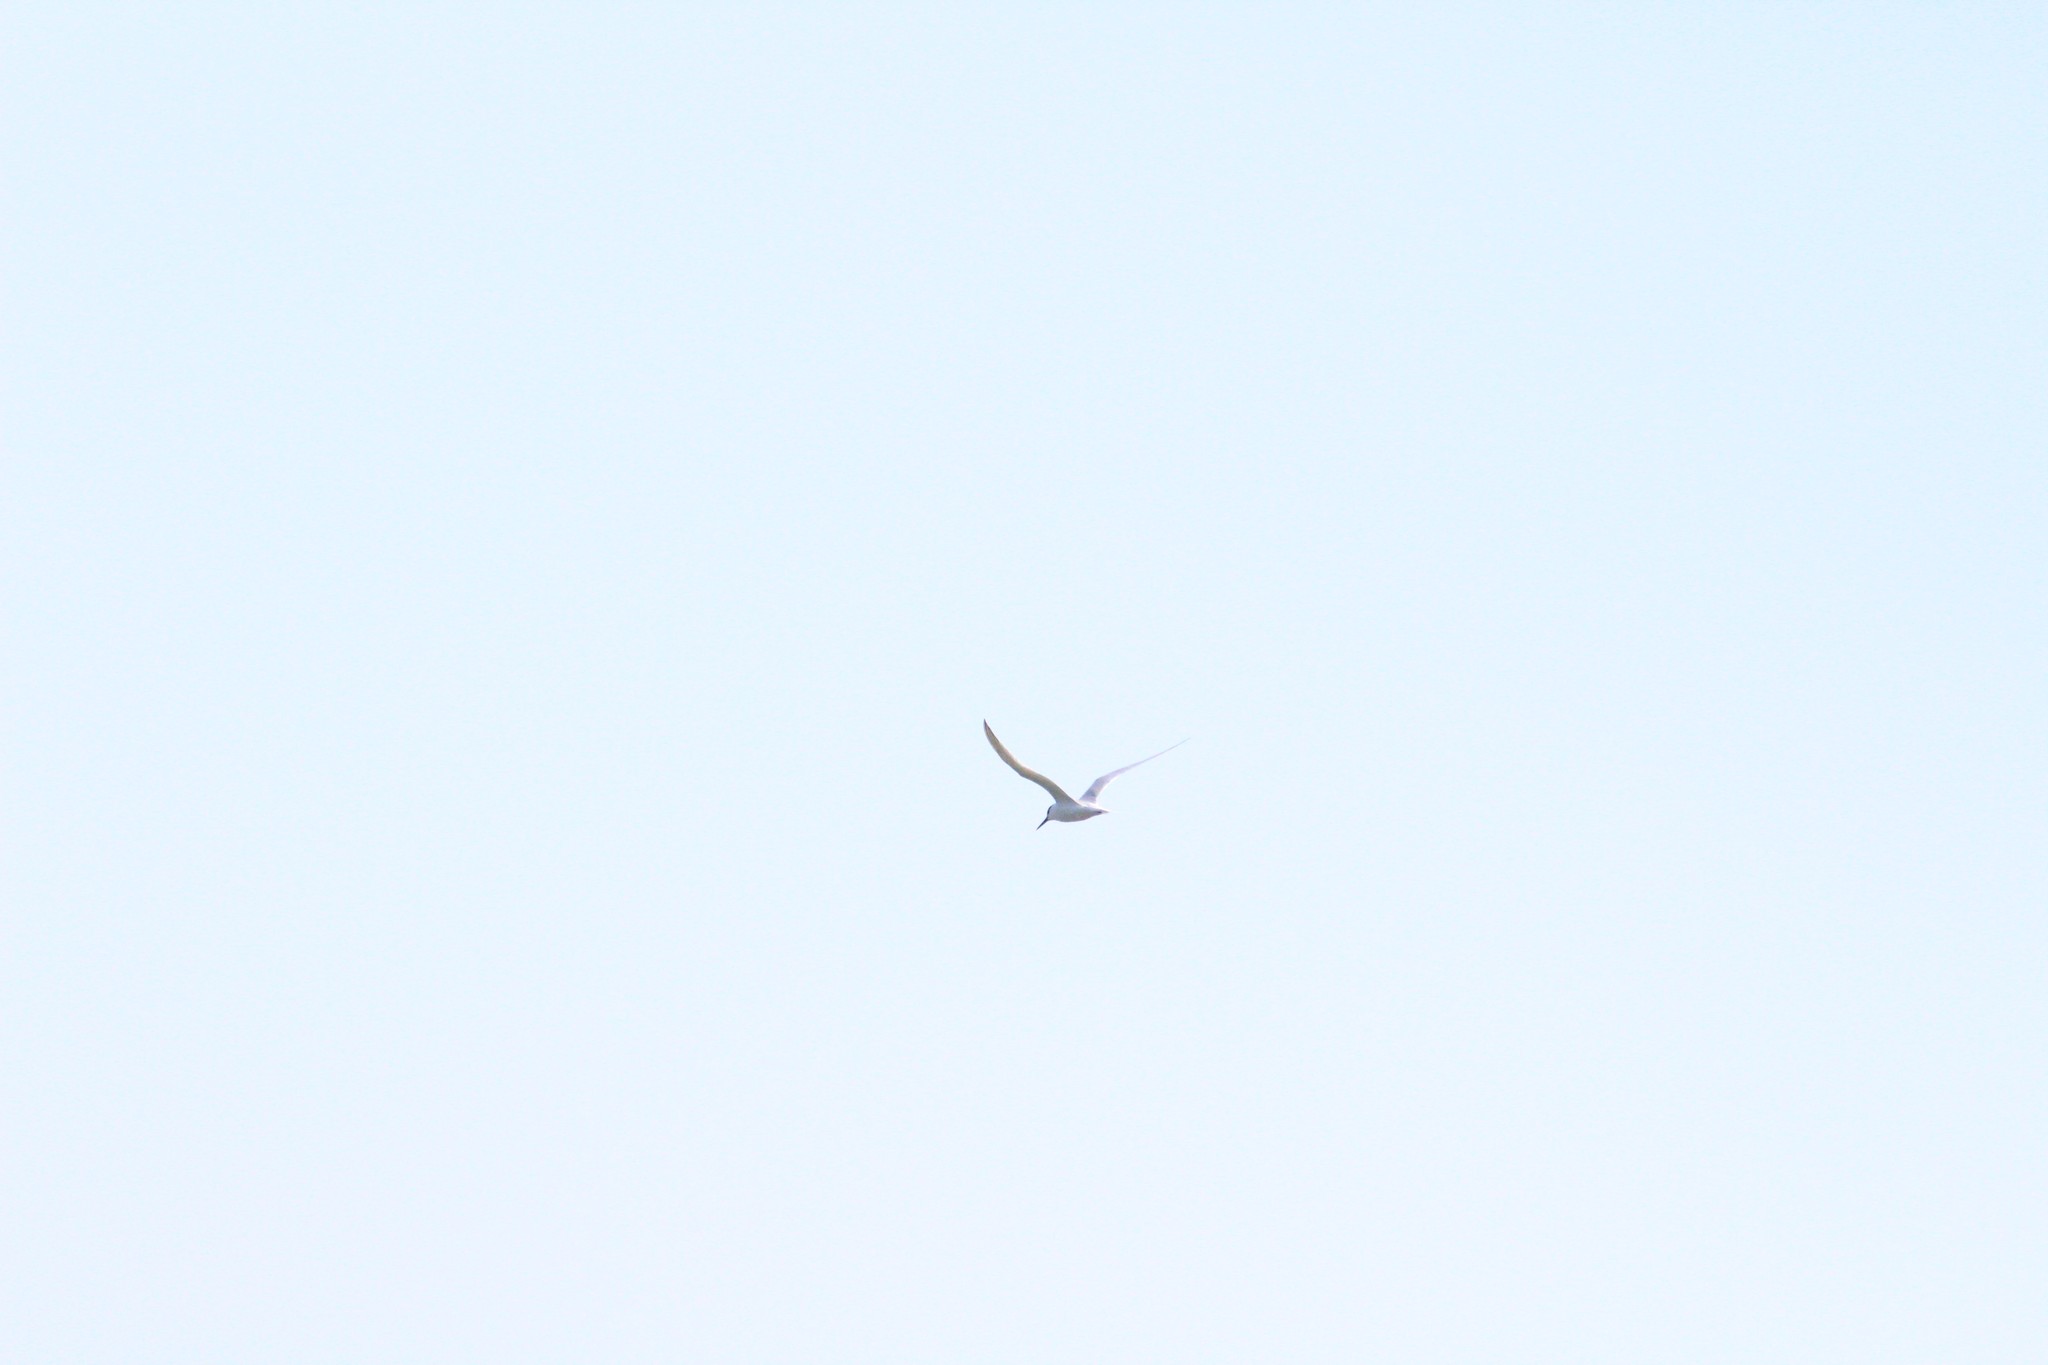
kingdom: Animalia
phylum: Chordata
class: Aves
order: Charadriiformes
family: Laridae
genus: Thalasseus
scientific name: Thalasseus sandvicensis
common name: Sandwich tern
